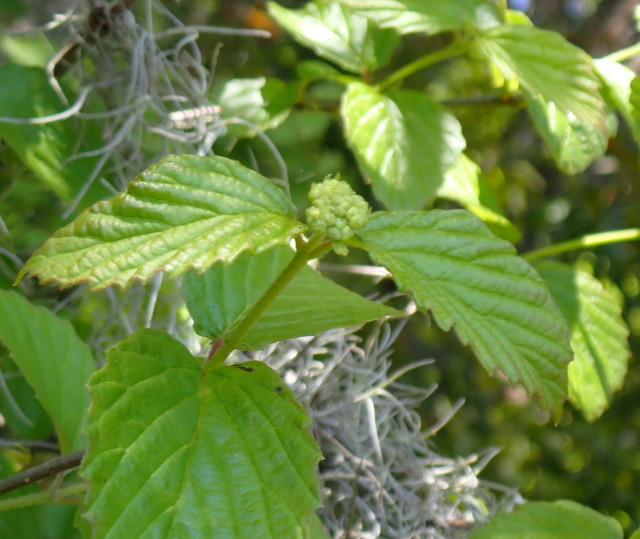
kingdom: Plantae
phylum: Tracheophyta
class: Magnoliopsida
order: Dipsacales
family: Viburnaceae
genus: Viburnum
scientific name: Viburnum scabrellum
